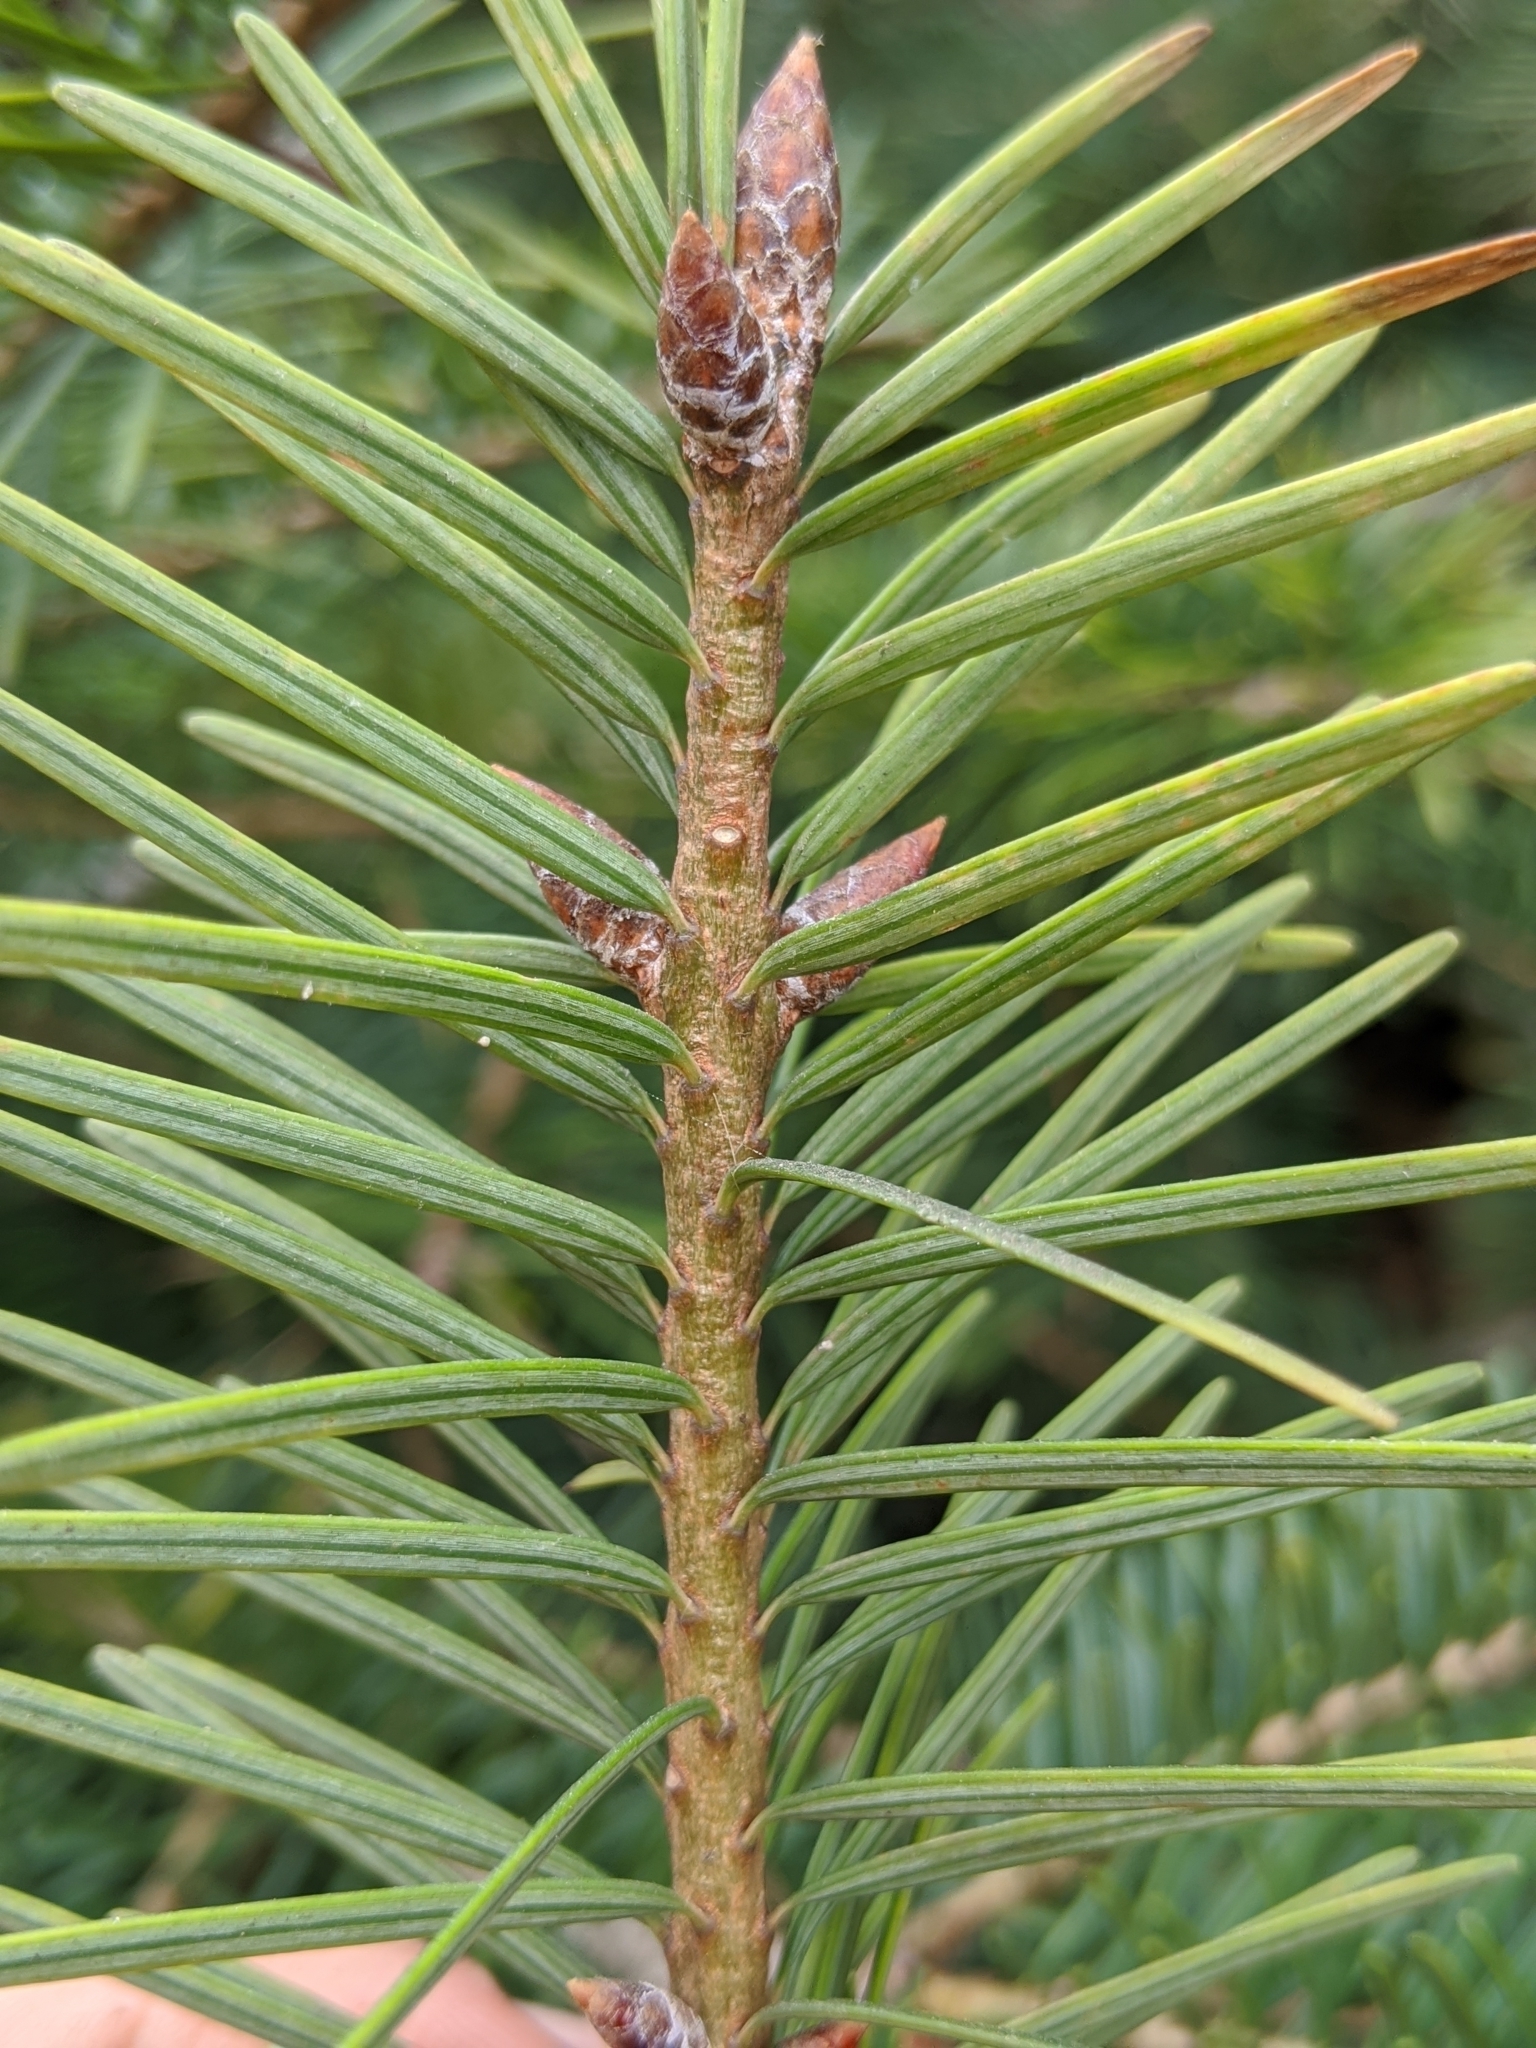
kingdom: Plantae
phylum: Tracheophyta
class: Pinopsida
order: Pinales
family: Pinaceae
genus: Pseudotsuga
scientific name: Pseudotsuga menziesii
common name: Douglas fir
